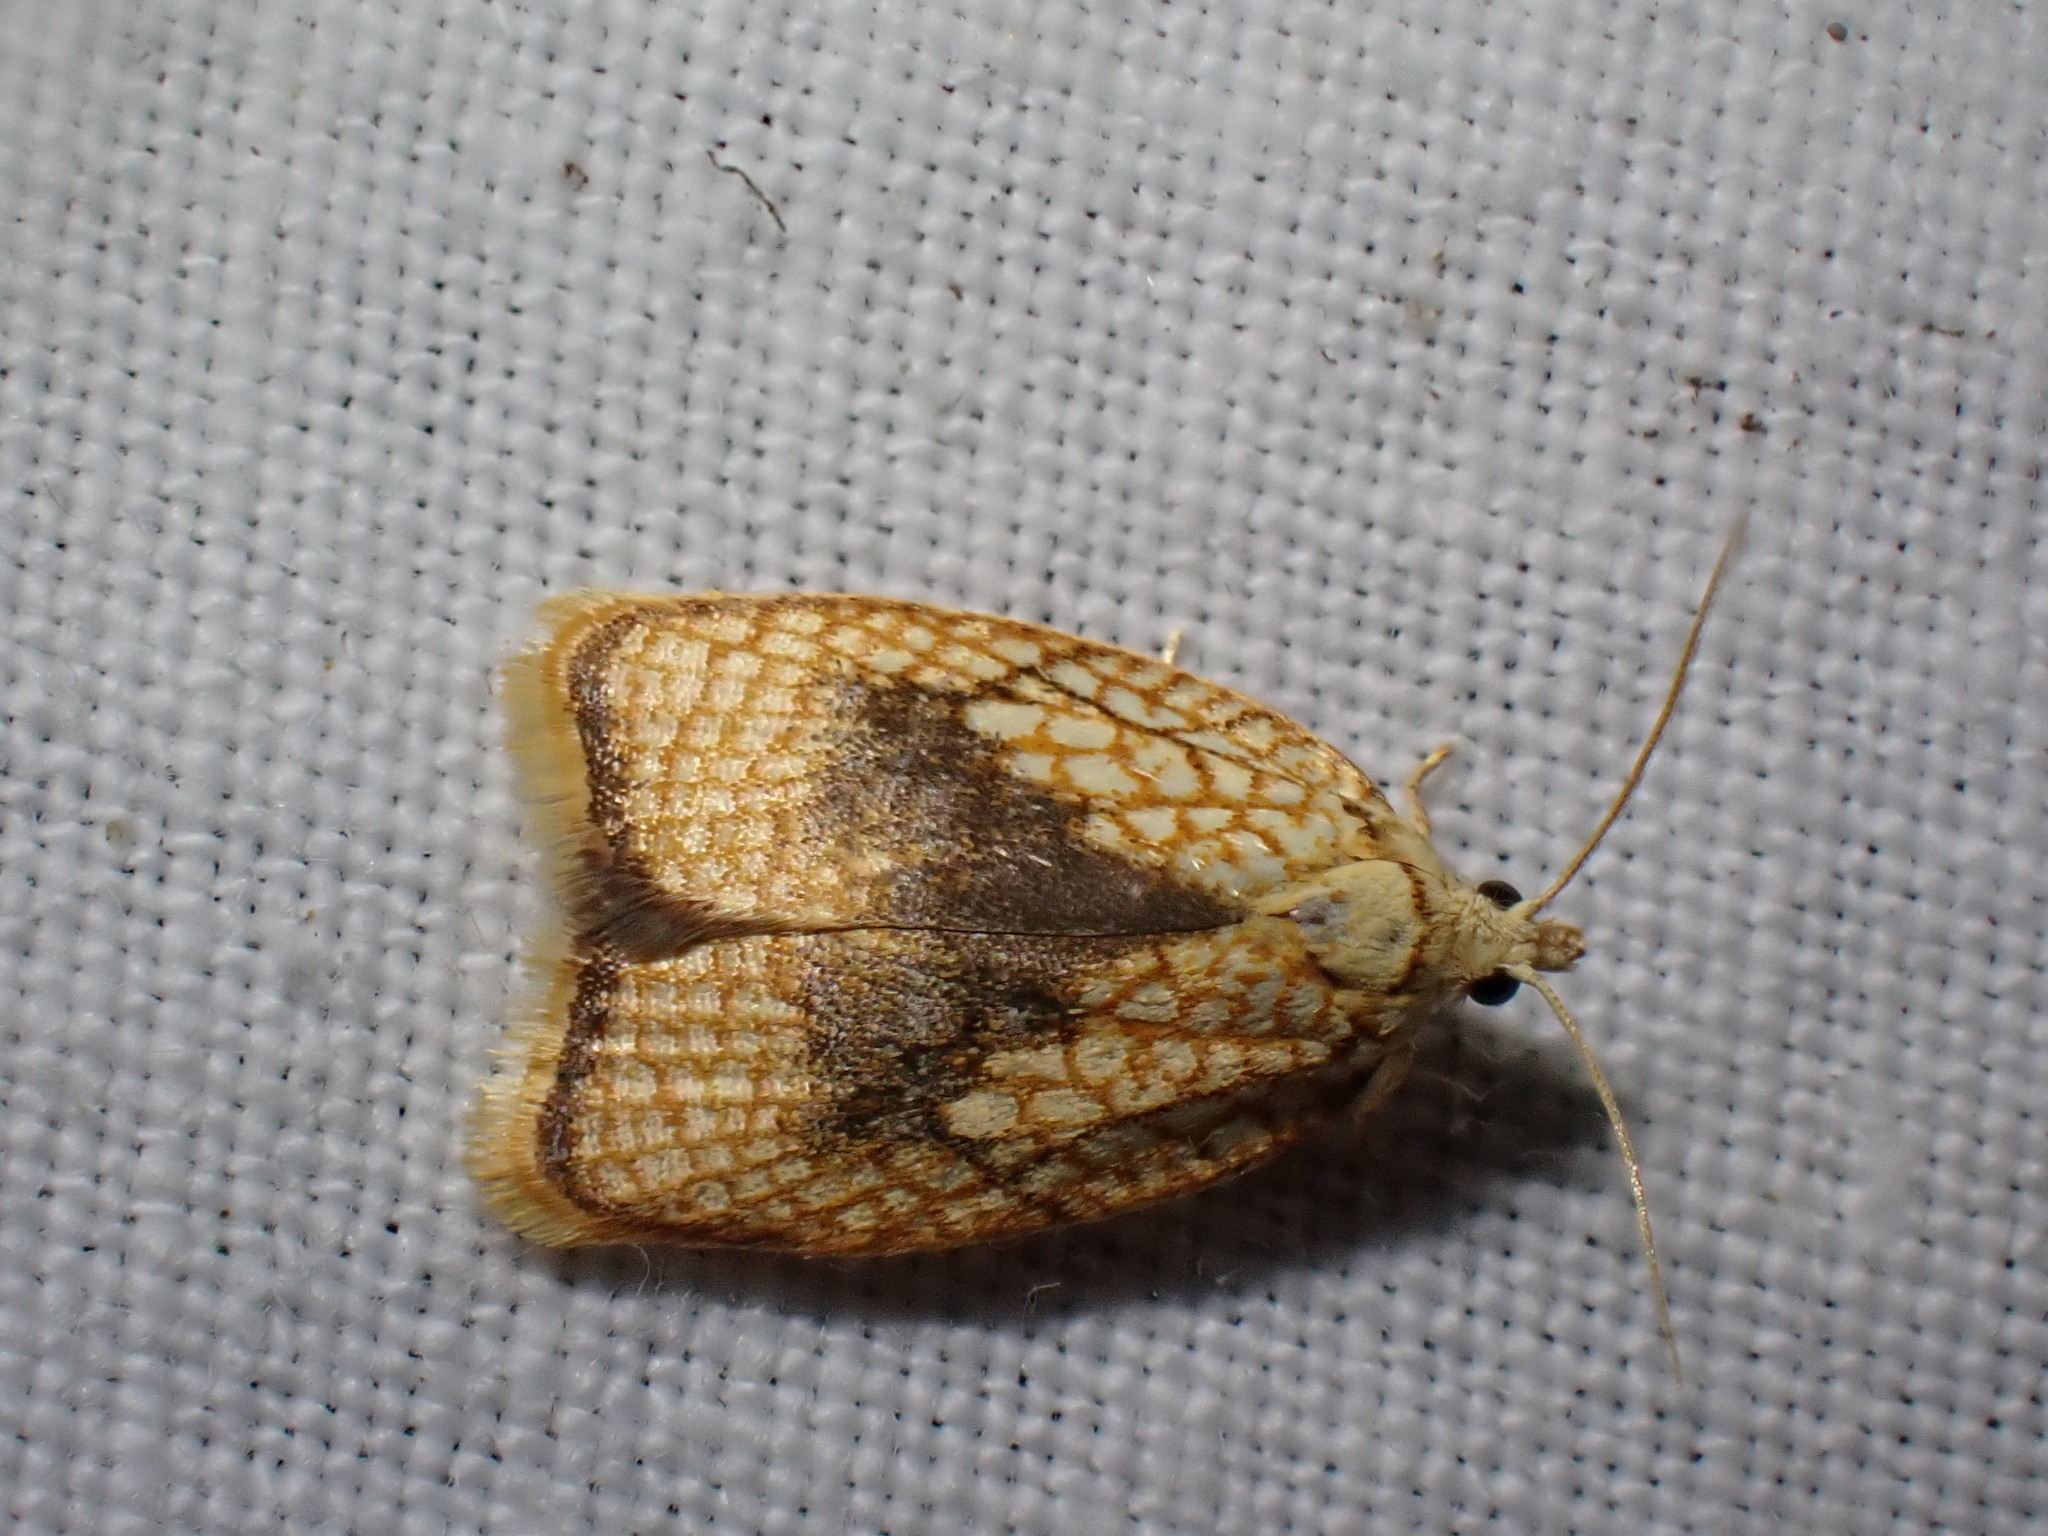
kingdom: Animalia
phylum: Arthropoda
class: Insecta
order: Lepidoptera
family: Tortricidae
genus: Acleris
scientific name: Acleris forsskaleana
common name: Maple button
